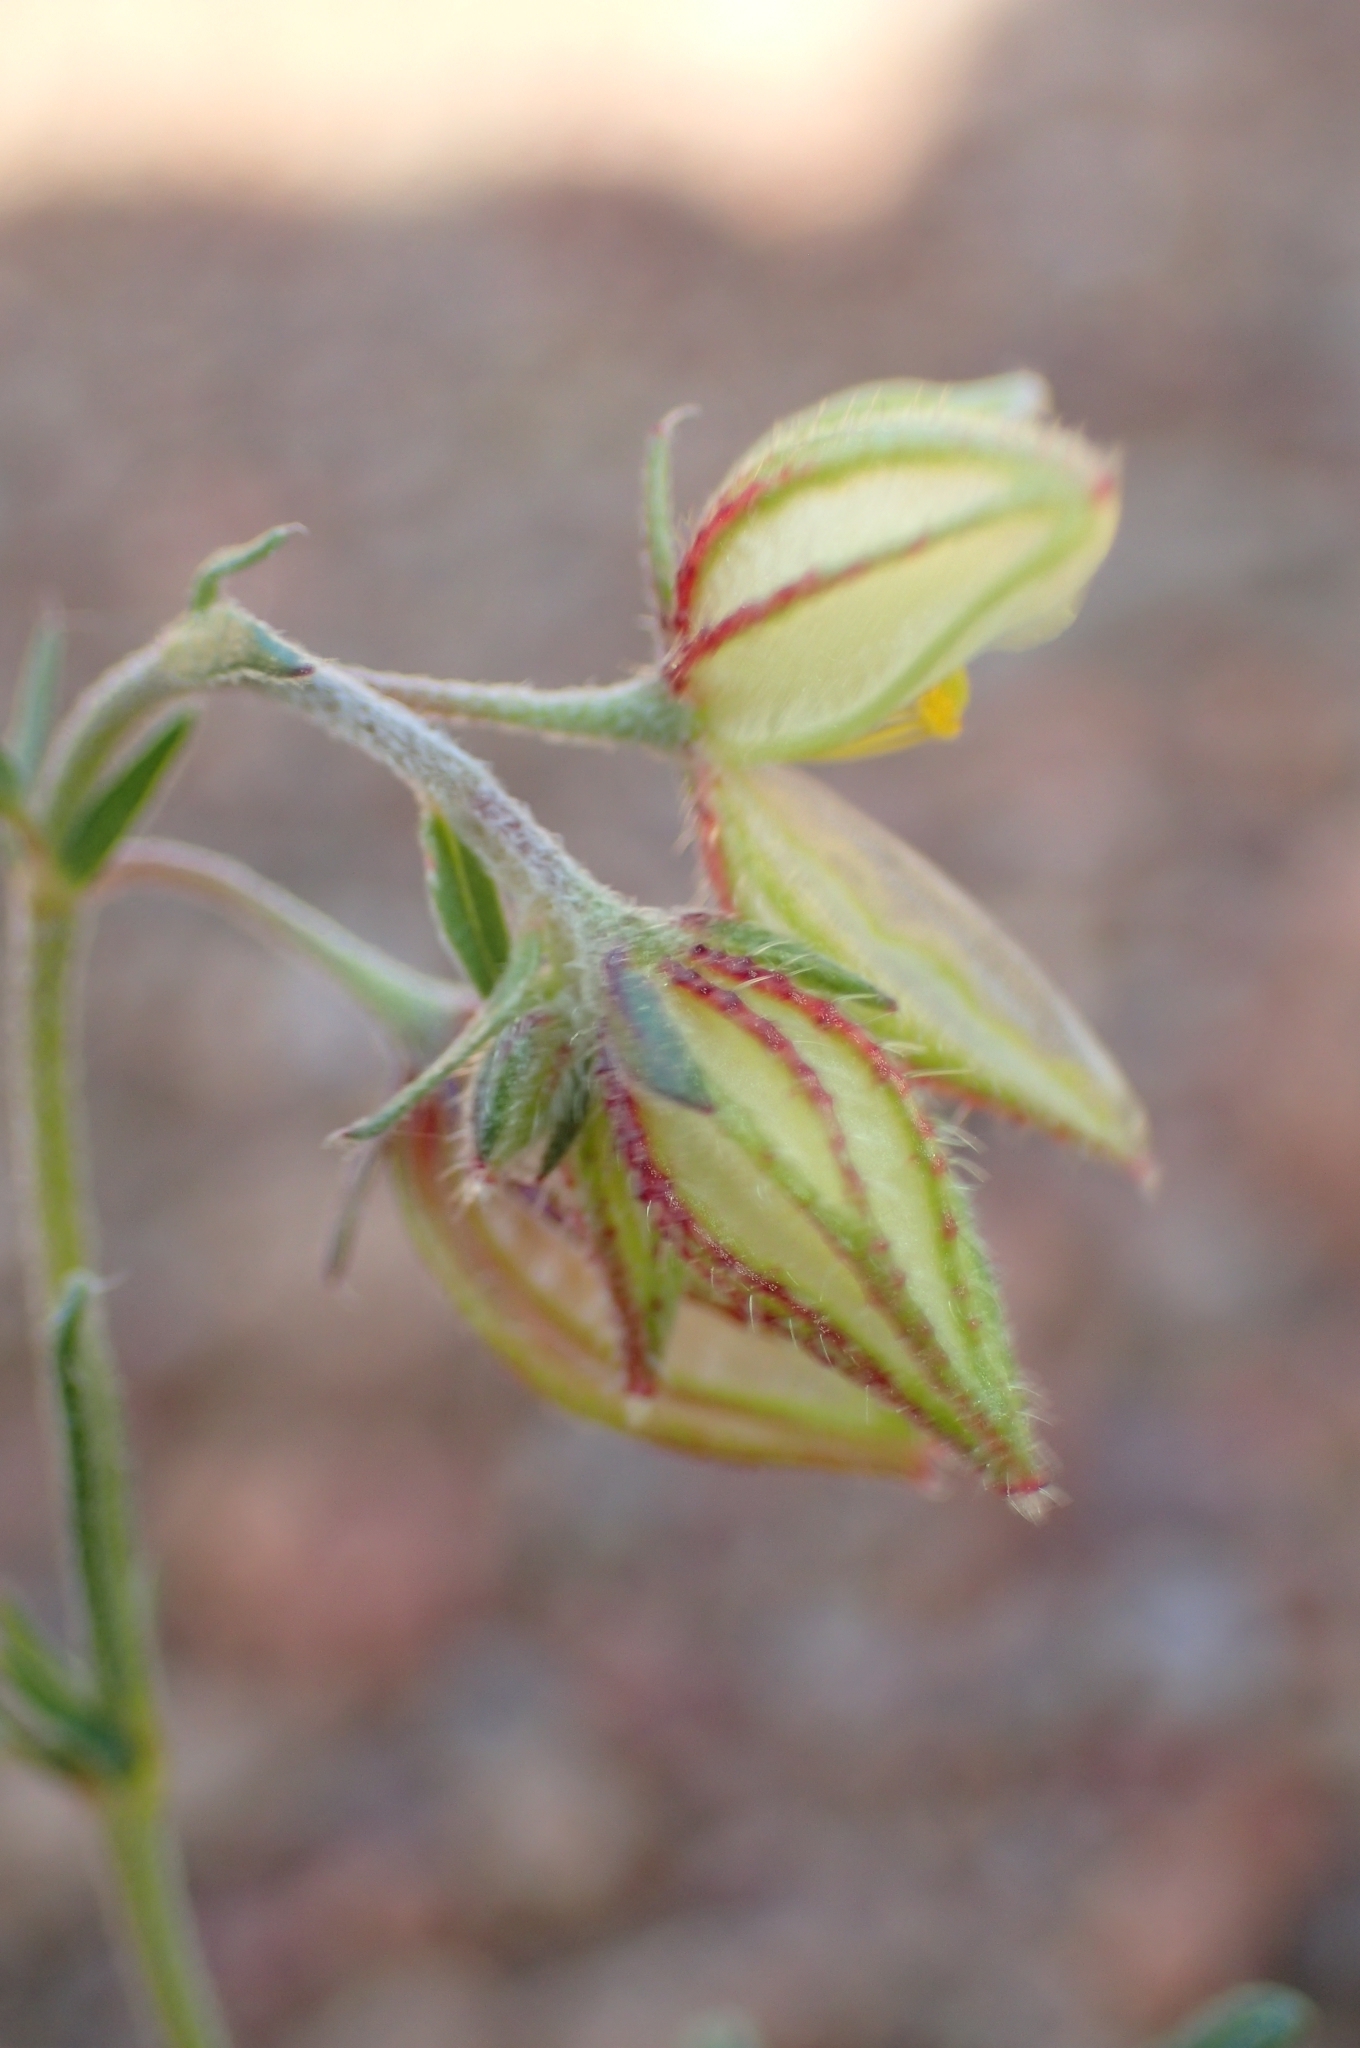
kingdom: Plantae
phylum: Tracheophyta
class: Magnoliopsida
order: Malvales
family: Cistaceae
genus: Helianthemum
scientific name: Helianthemum aegyptiacum
